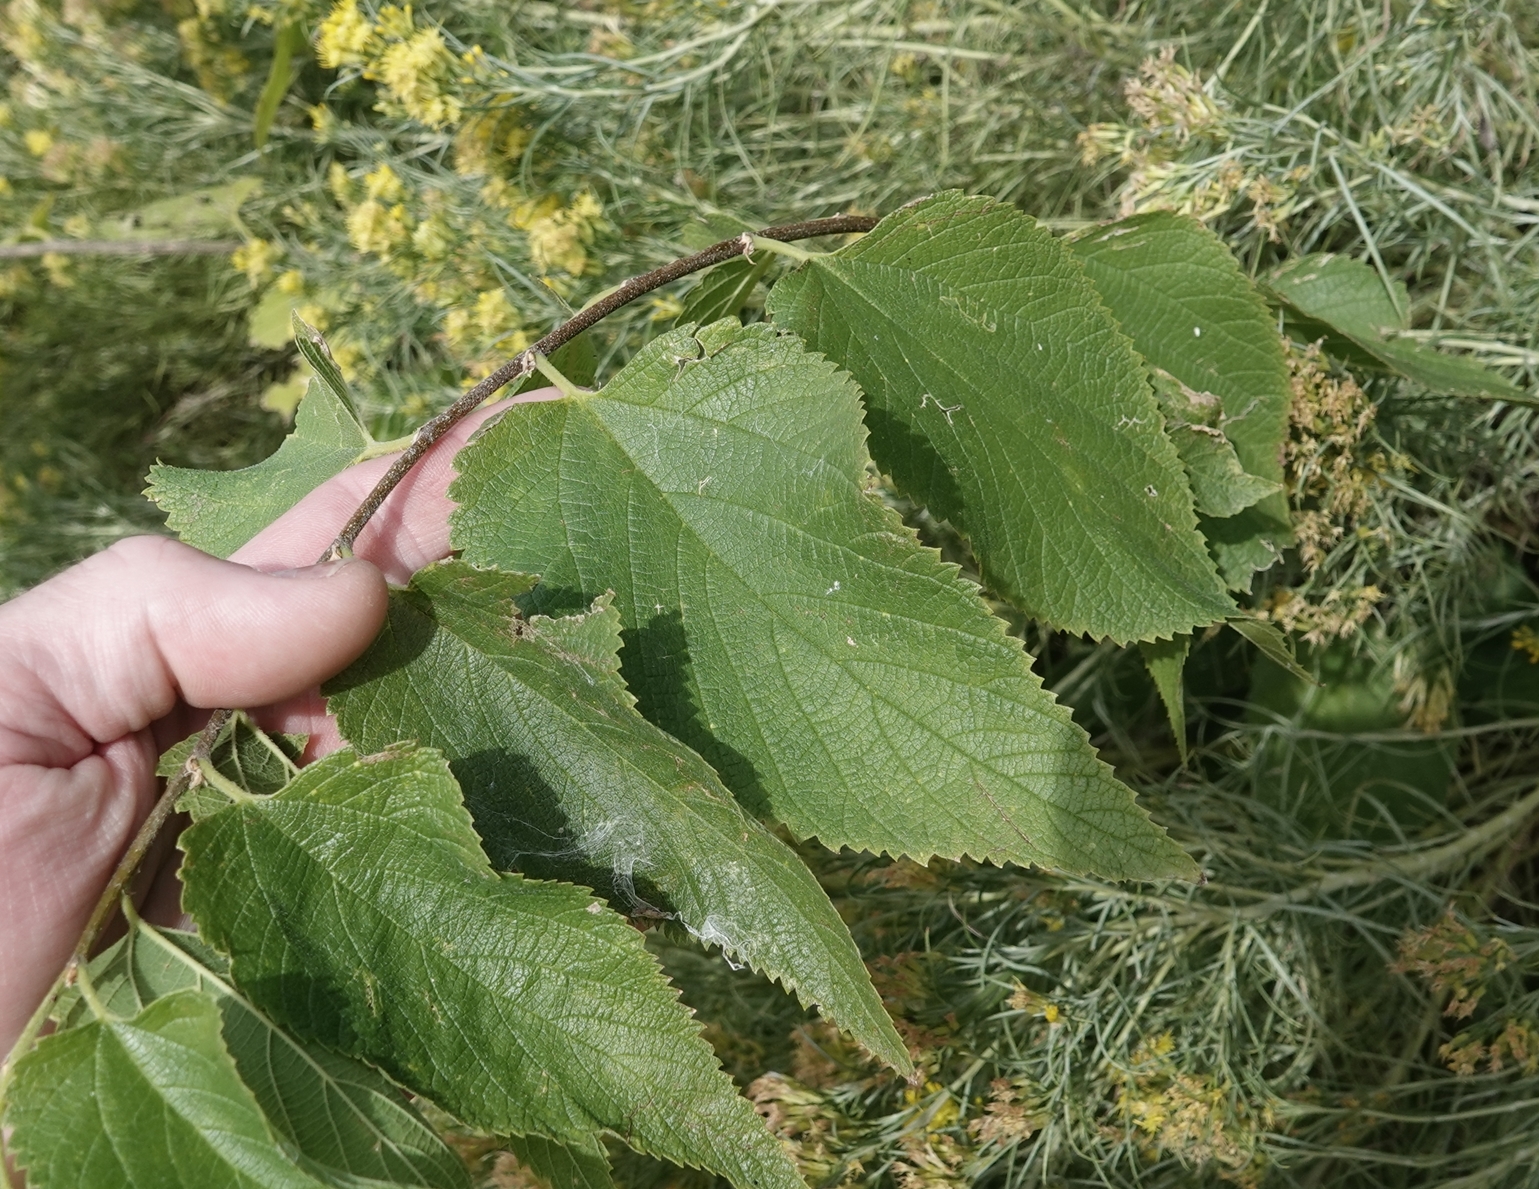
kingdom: Plantae
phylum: Tracheophyta
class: Magnoliopsida
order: Rosales
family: Cannabaceae
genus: Celtis
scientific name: Celtis occidentalis
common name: Common hackberry
